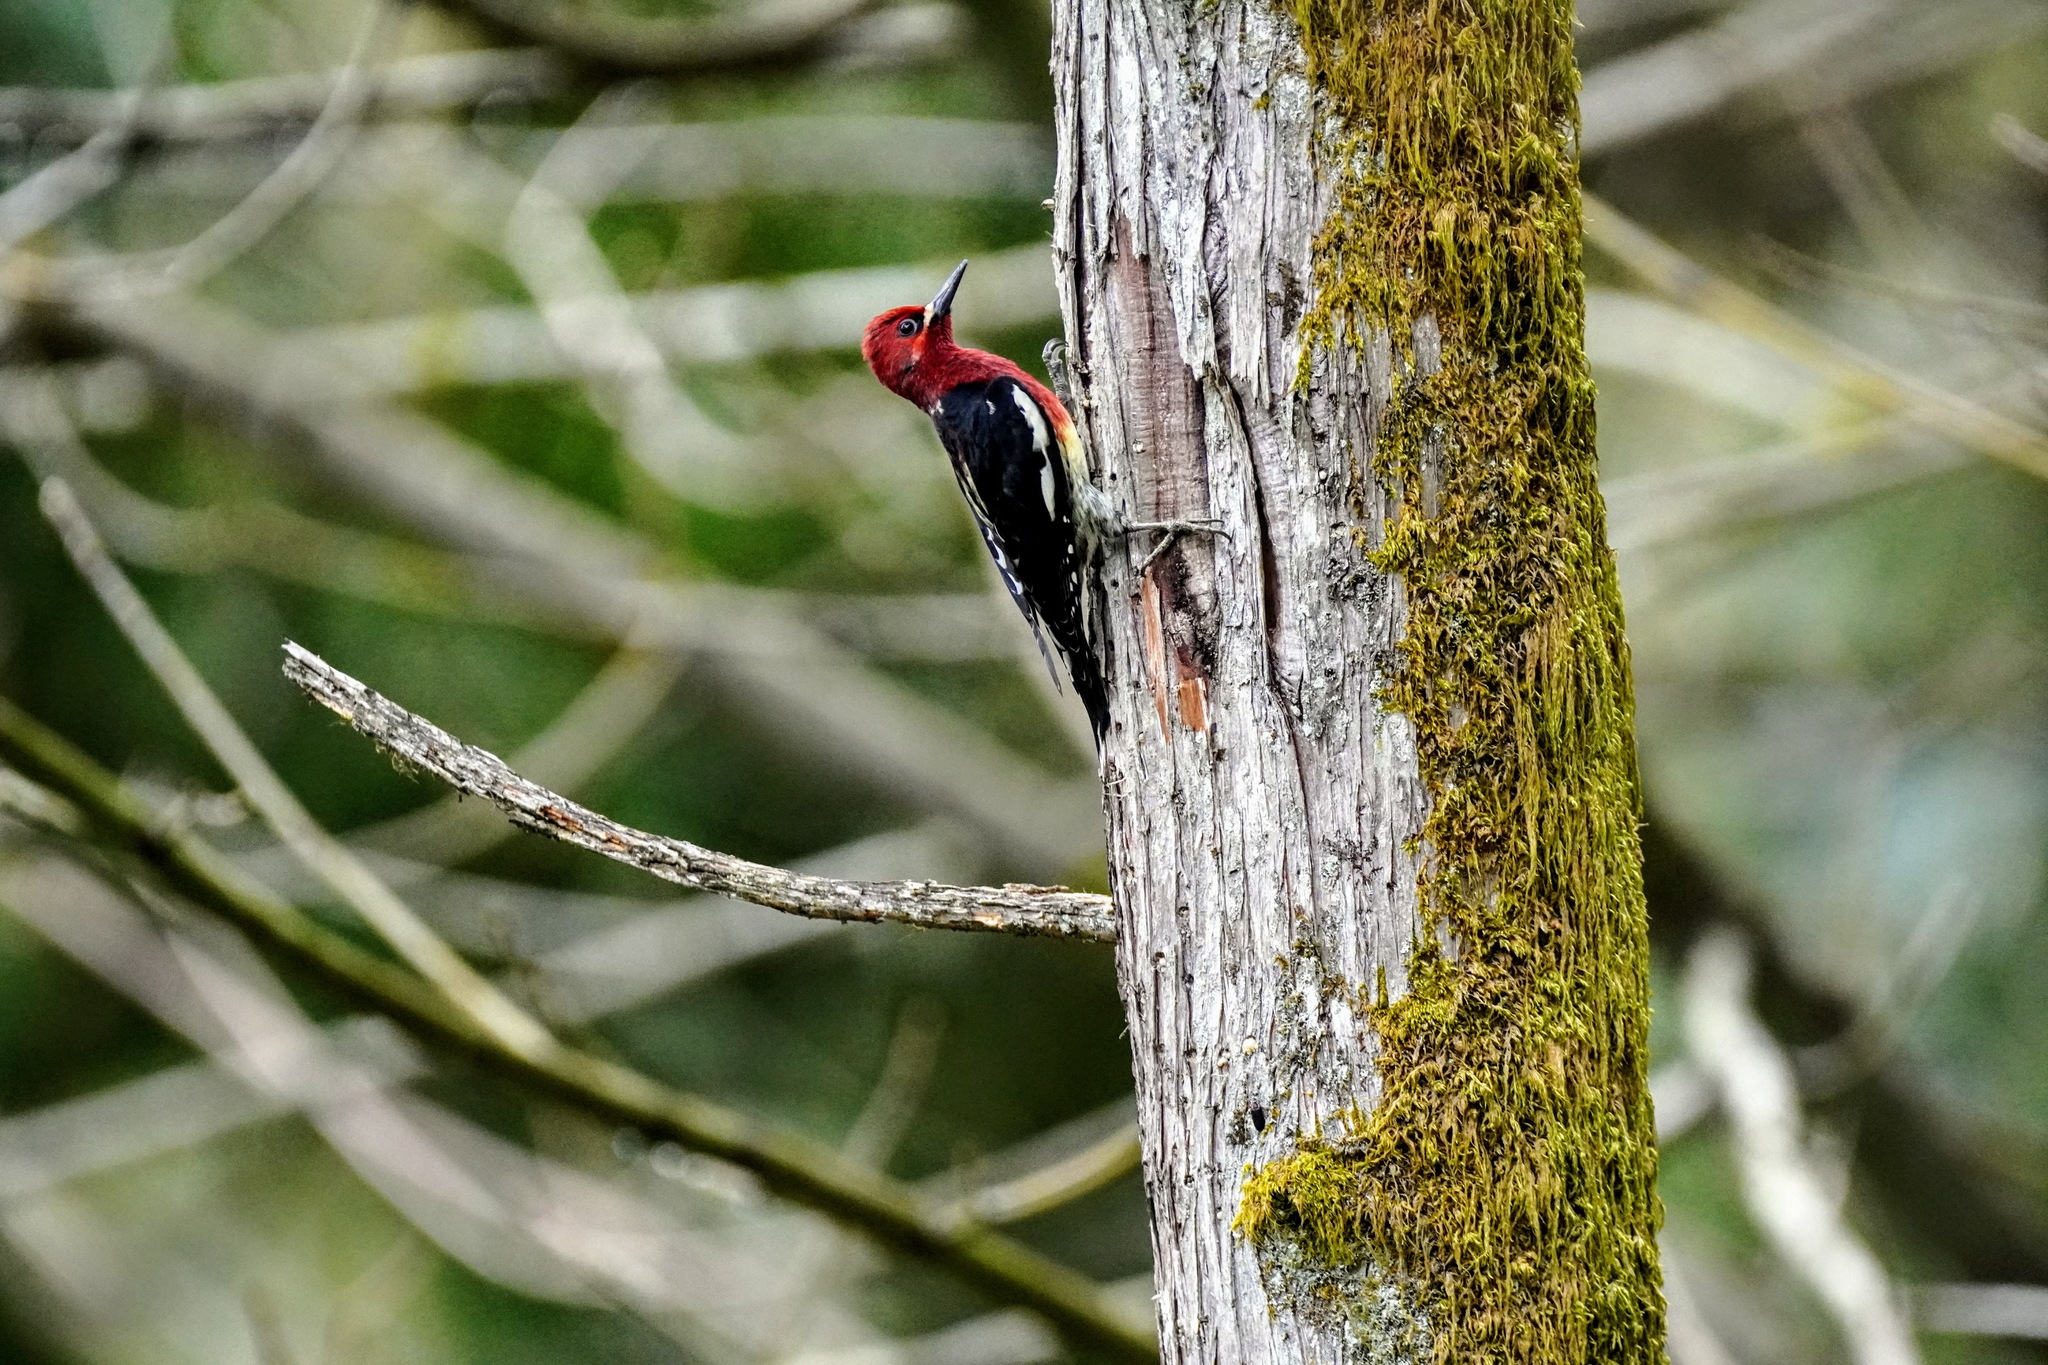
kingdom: Animalia
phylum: Chordata
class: Aves
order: Piciformes
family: Picidae
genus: Sphyrapicus
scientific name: Sphyrapicus ruber
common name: Red-breasted sapsucker
